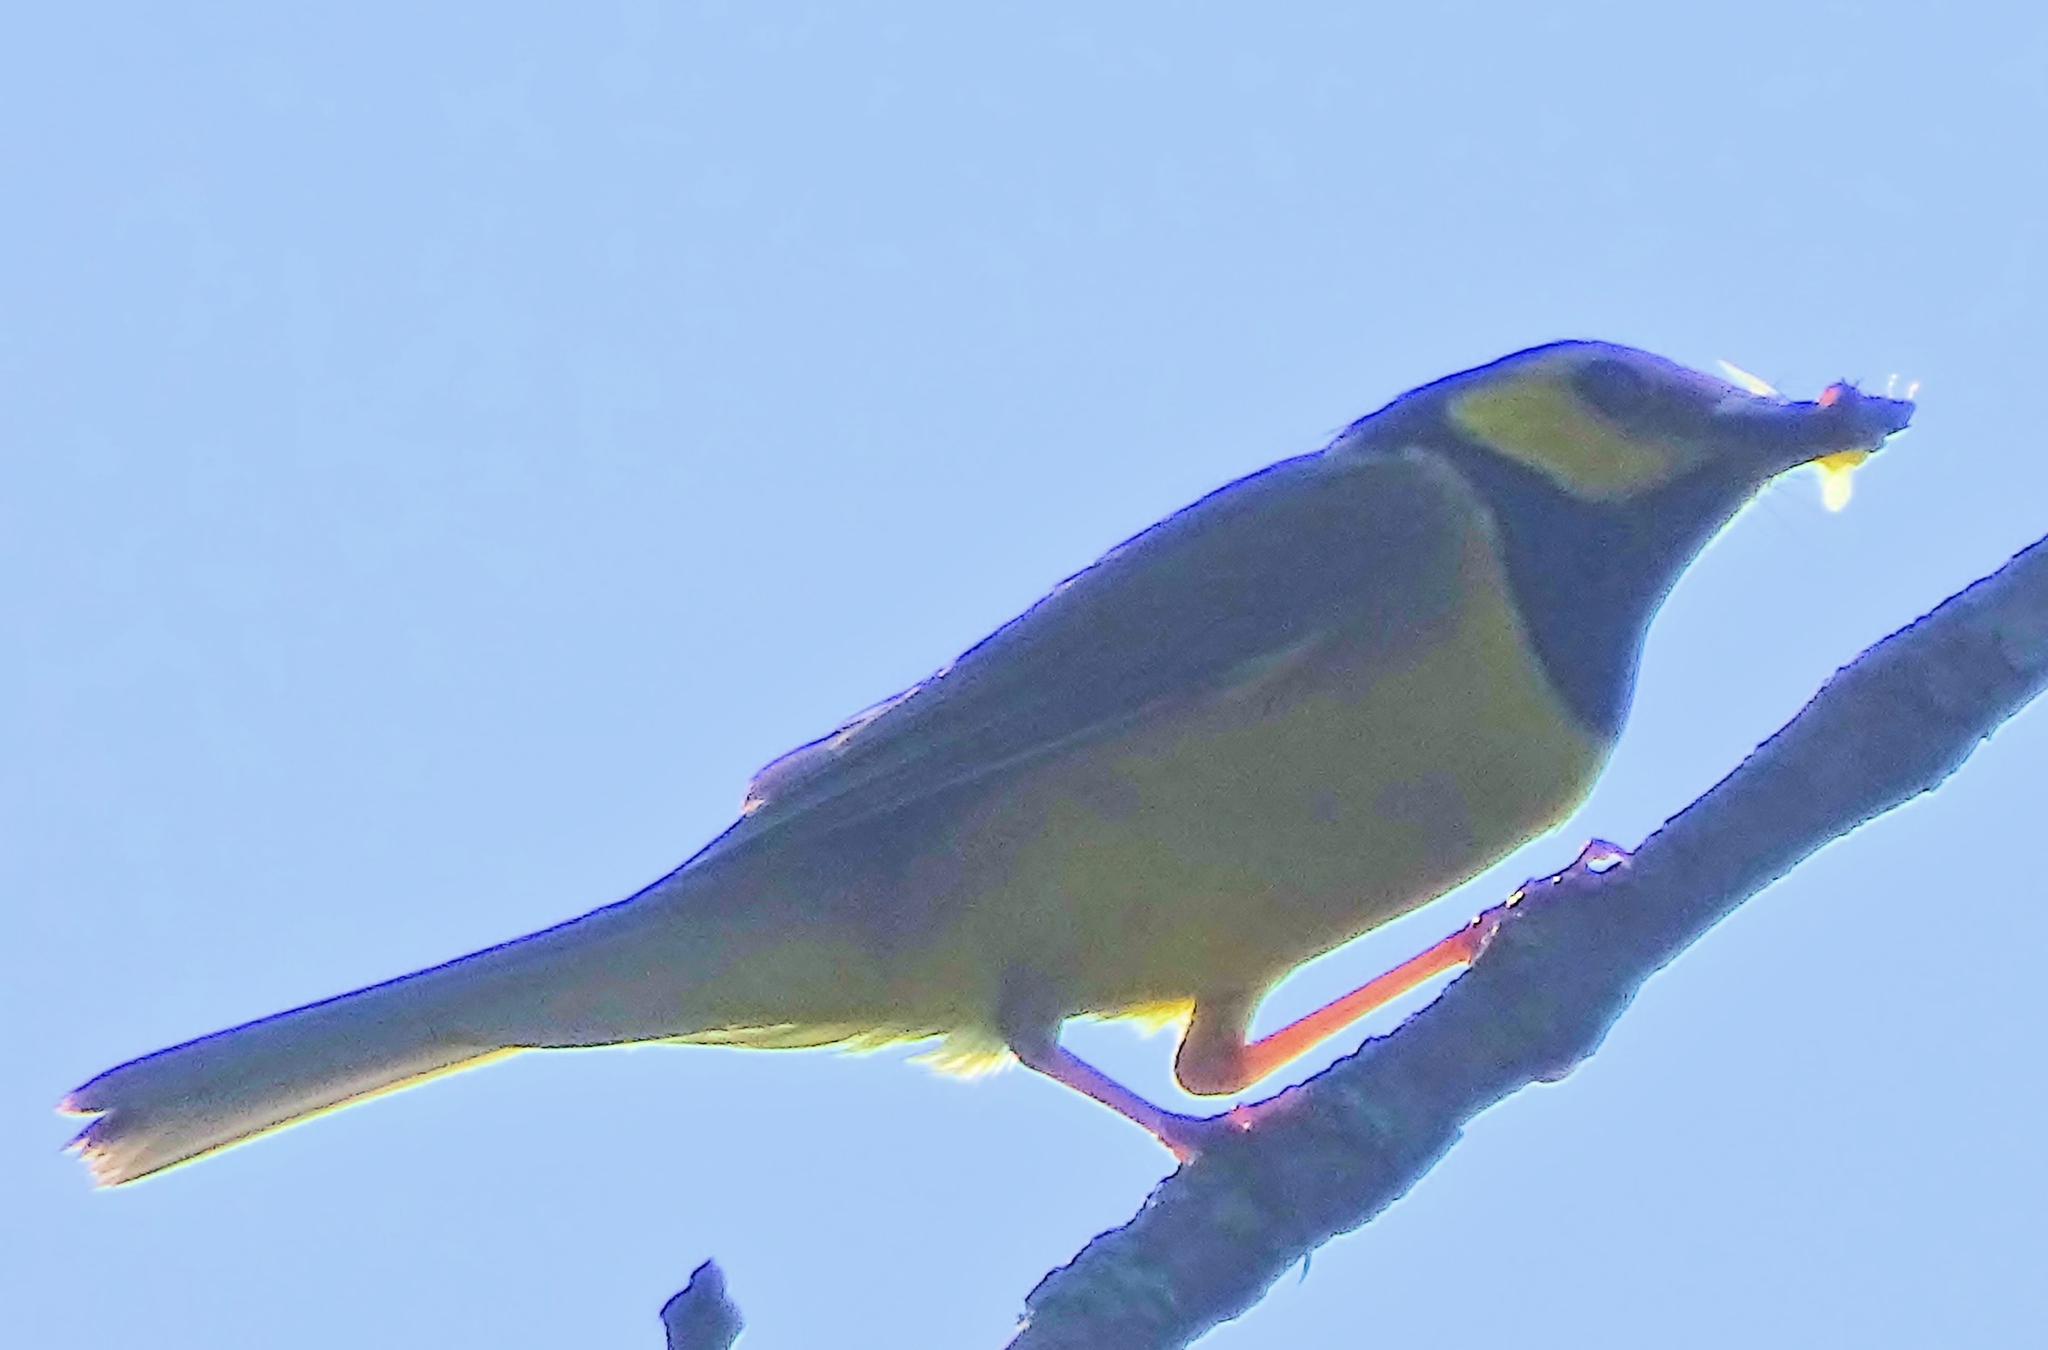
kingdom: Animalia
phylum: Chordata
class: Aves
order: Passeriformes
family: Parulidae
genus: Setophaga
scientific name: Setophaga citrina
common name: Hooded warbler
